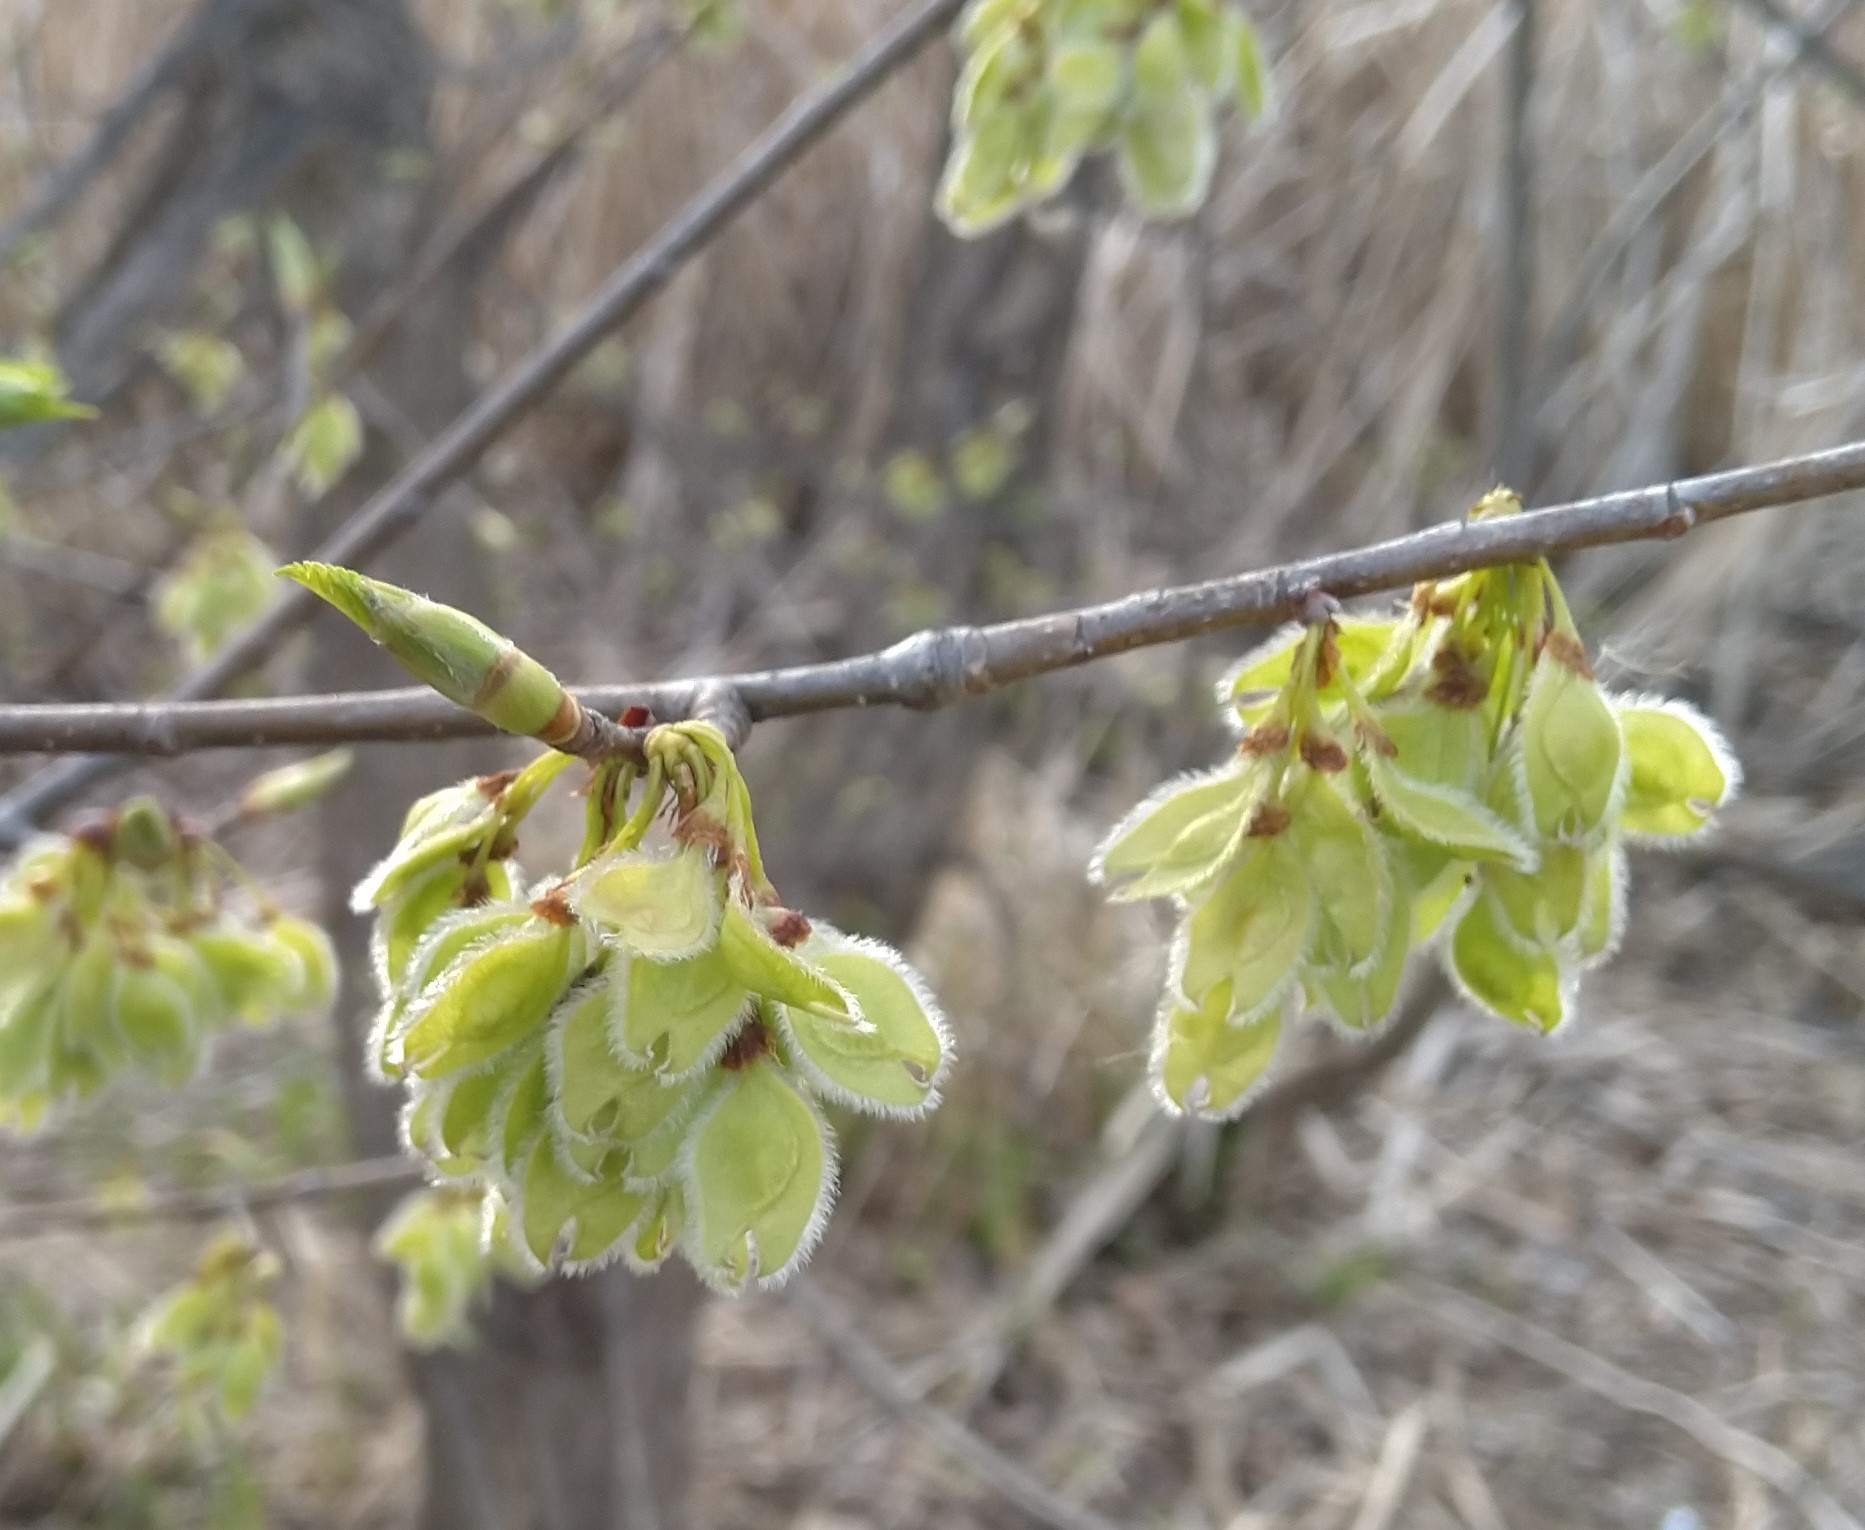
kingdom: Plantae
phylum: Tracheophyta
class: Magnoliopsida
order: Rosales
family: Ulmaceae
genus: Ulmus
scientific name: Ulmus americana
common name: American elm
